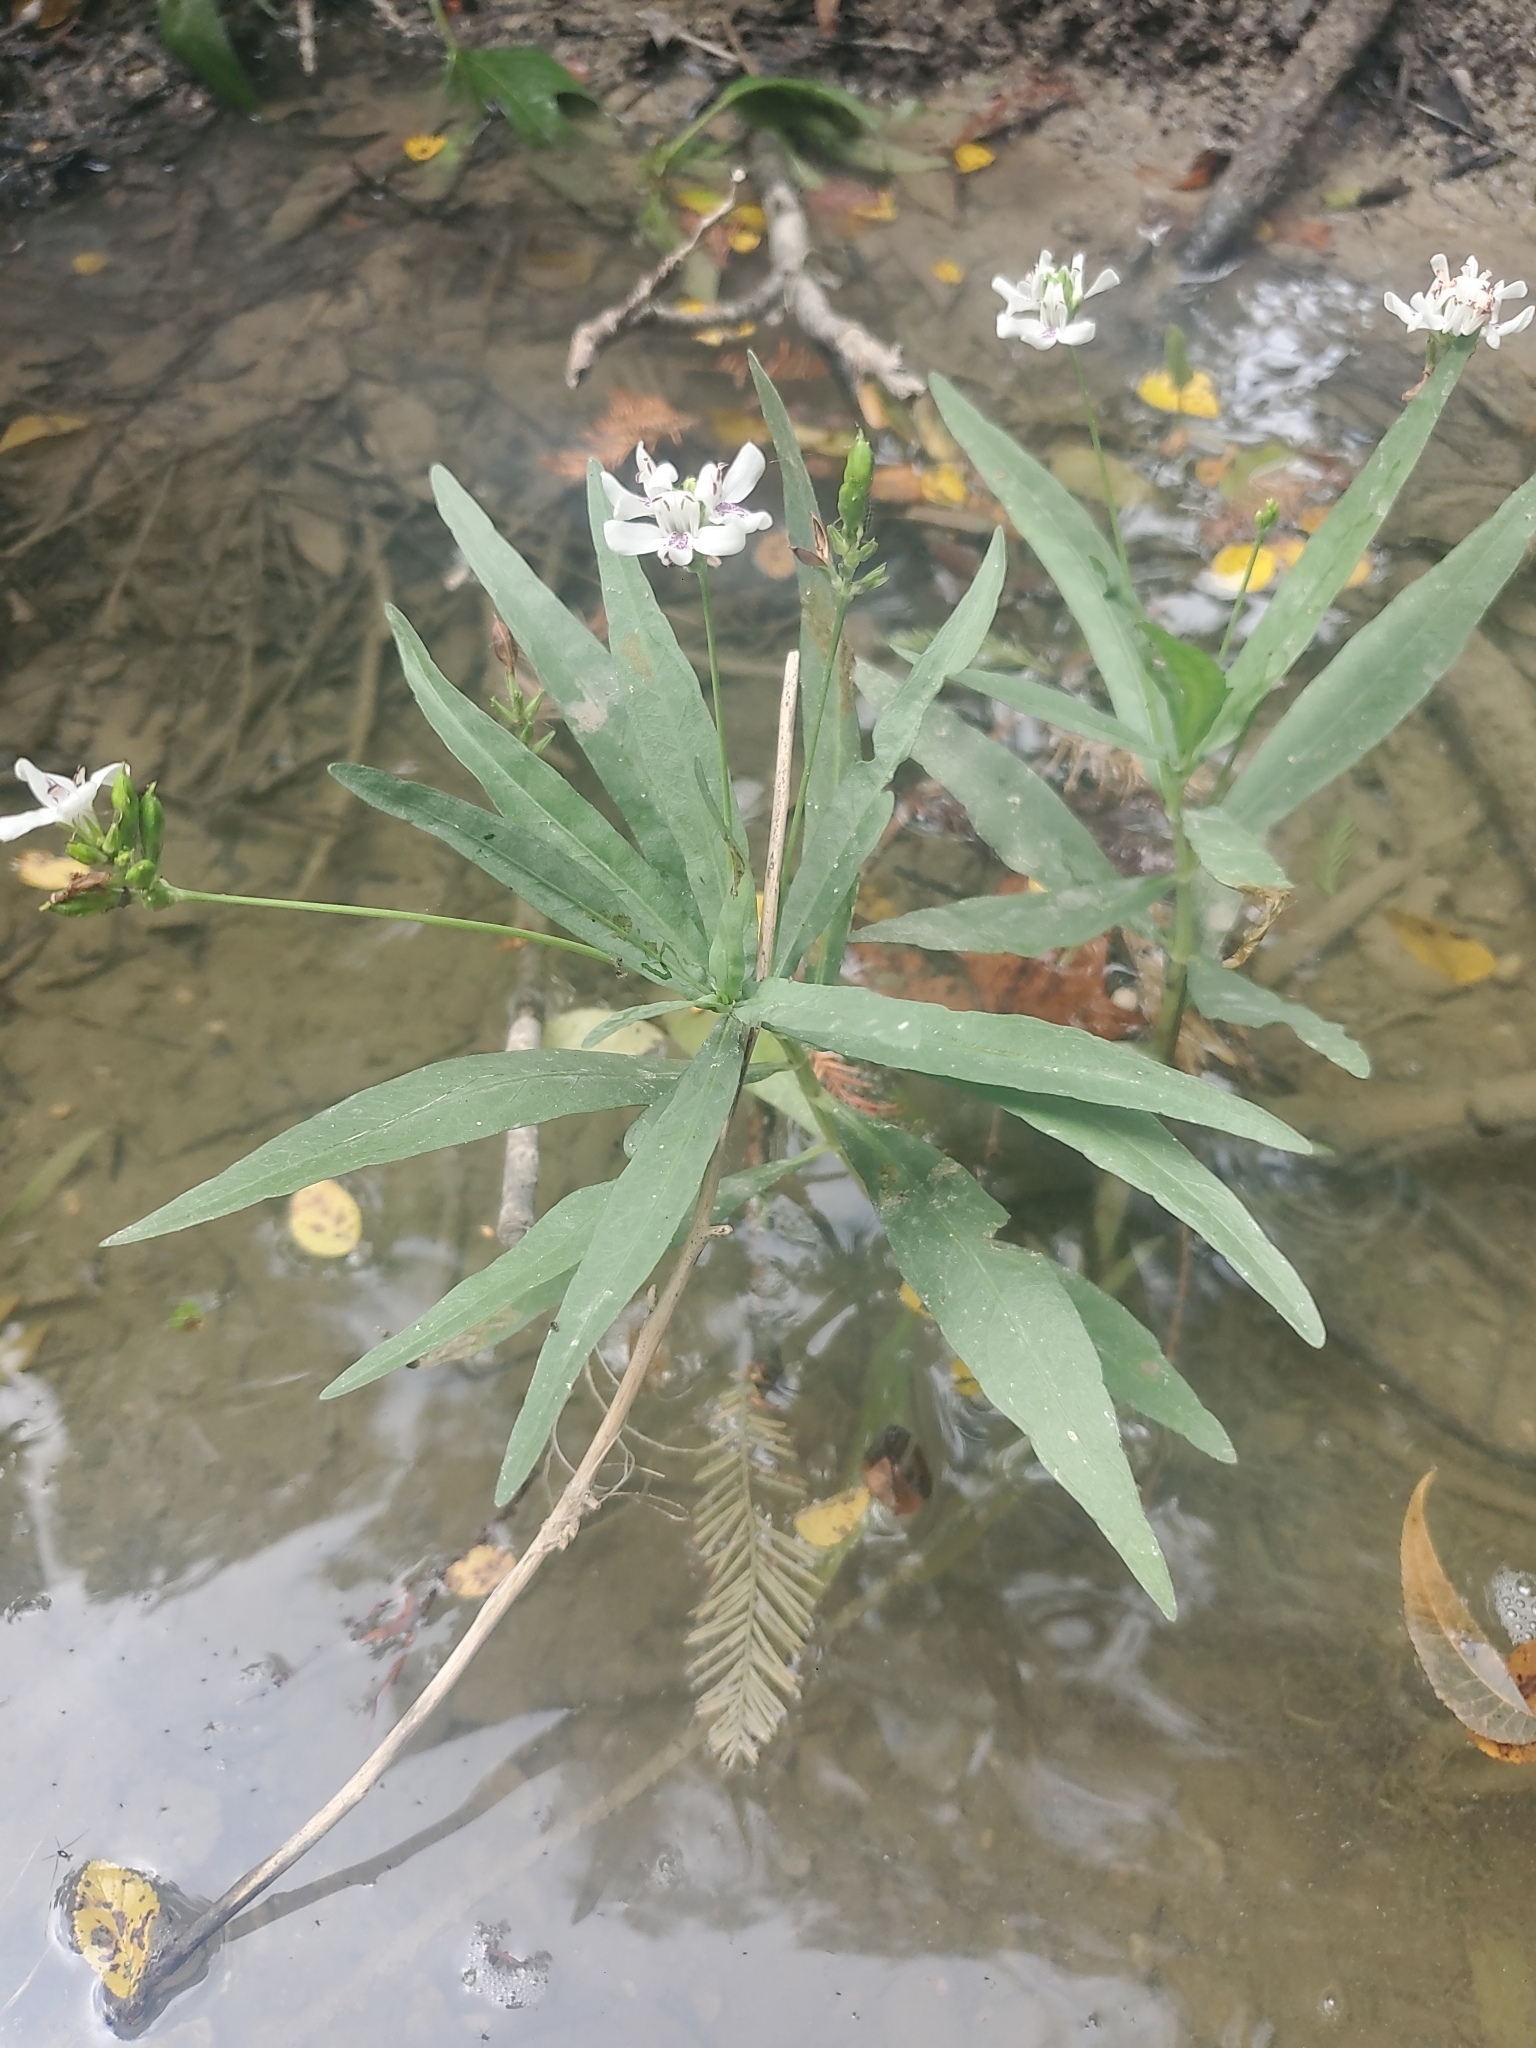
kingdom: Plantae
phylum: Tracheophyta
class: Magnoliopsida
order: Lamiales
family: Acanthaceae
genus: Dianthera
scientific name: Dianthera americana
